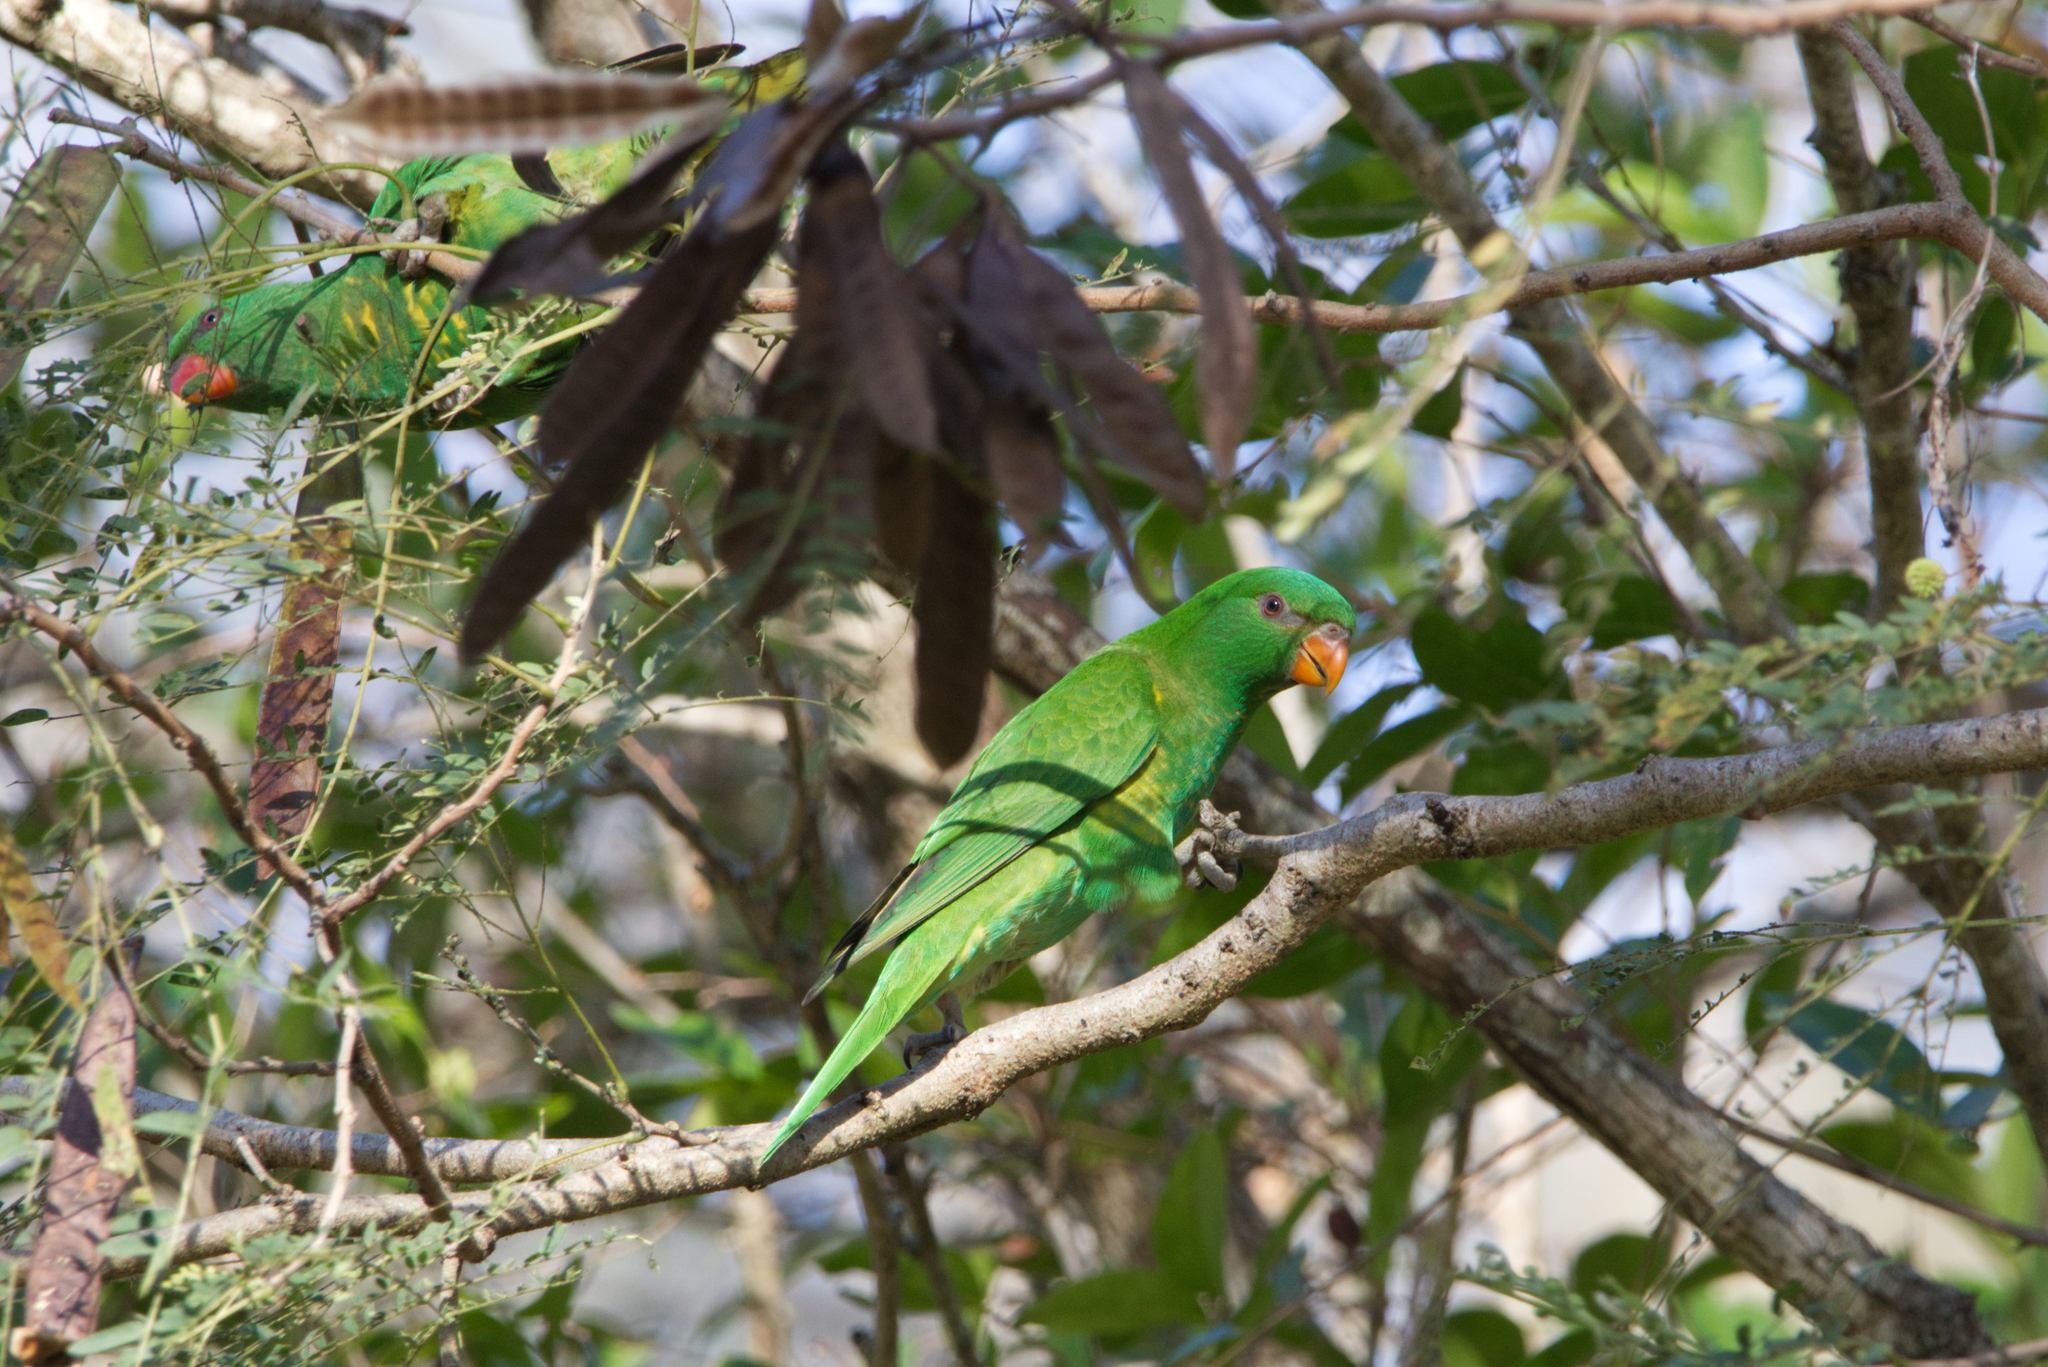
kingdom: Animalia
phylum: Chordata
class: Aves
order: Psittaciformes
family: Psittacidae
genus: Trichoglossus
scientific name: Trichoglossus chlorolepidotus
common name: Scaly-breasted lorikeet
